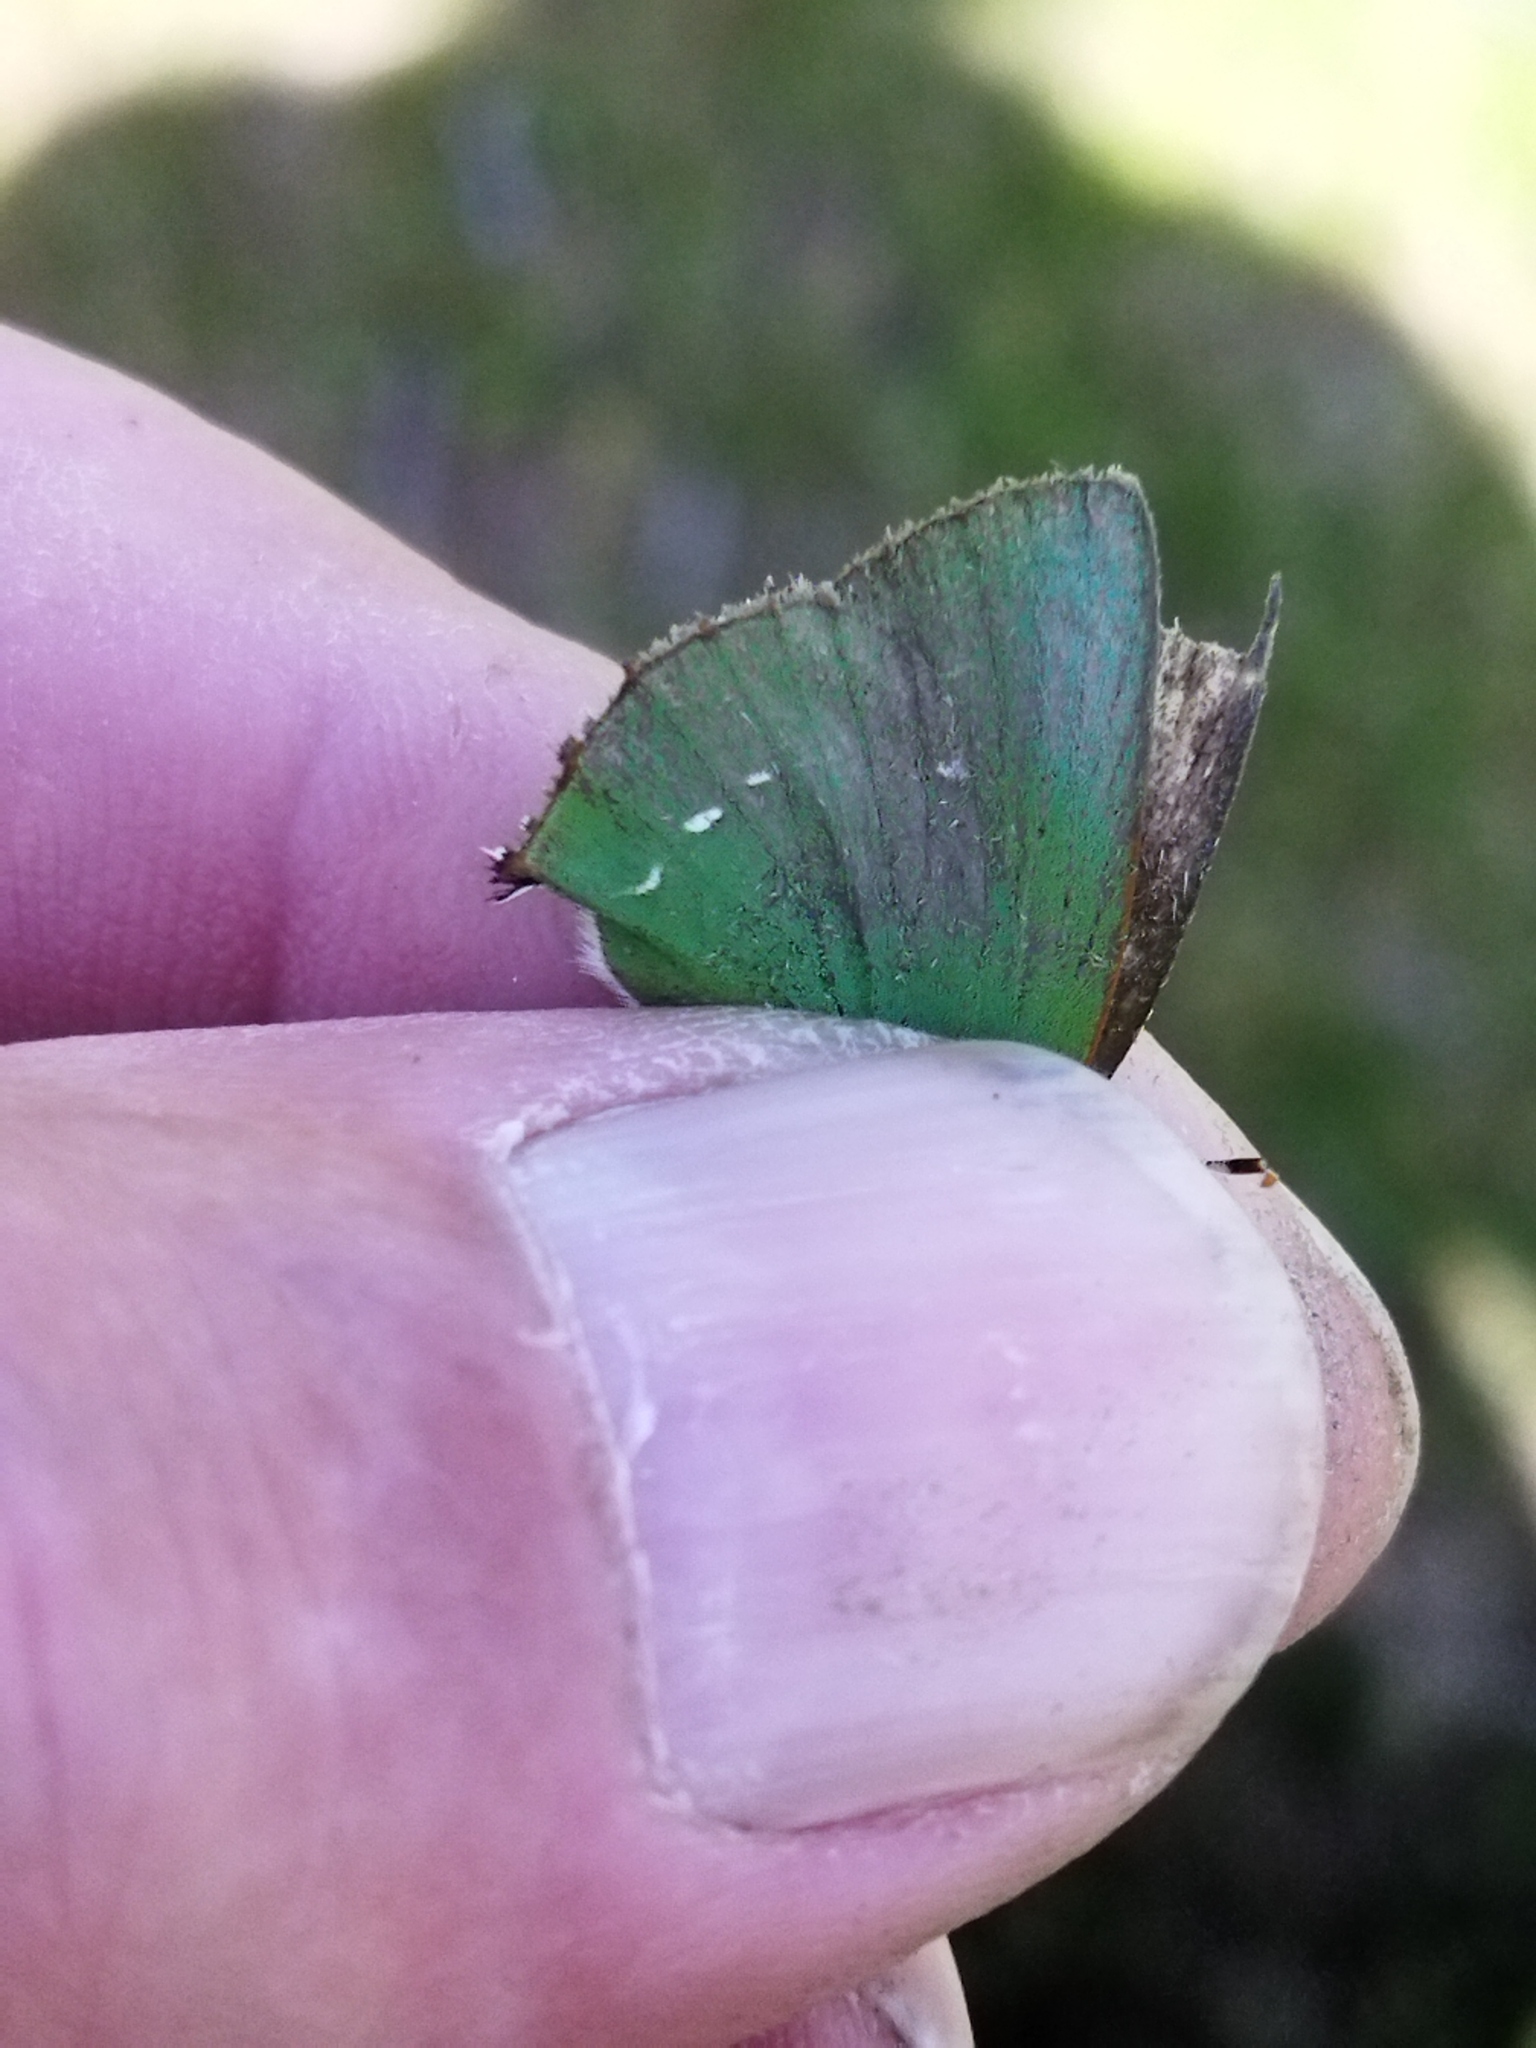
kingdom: Animalia
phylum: Arthropoda
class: Insecta
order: Lepidoptera
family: Lycaenidae
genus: Callophrys
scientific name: Callophrys rubi
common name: Green hairstreak
